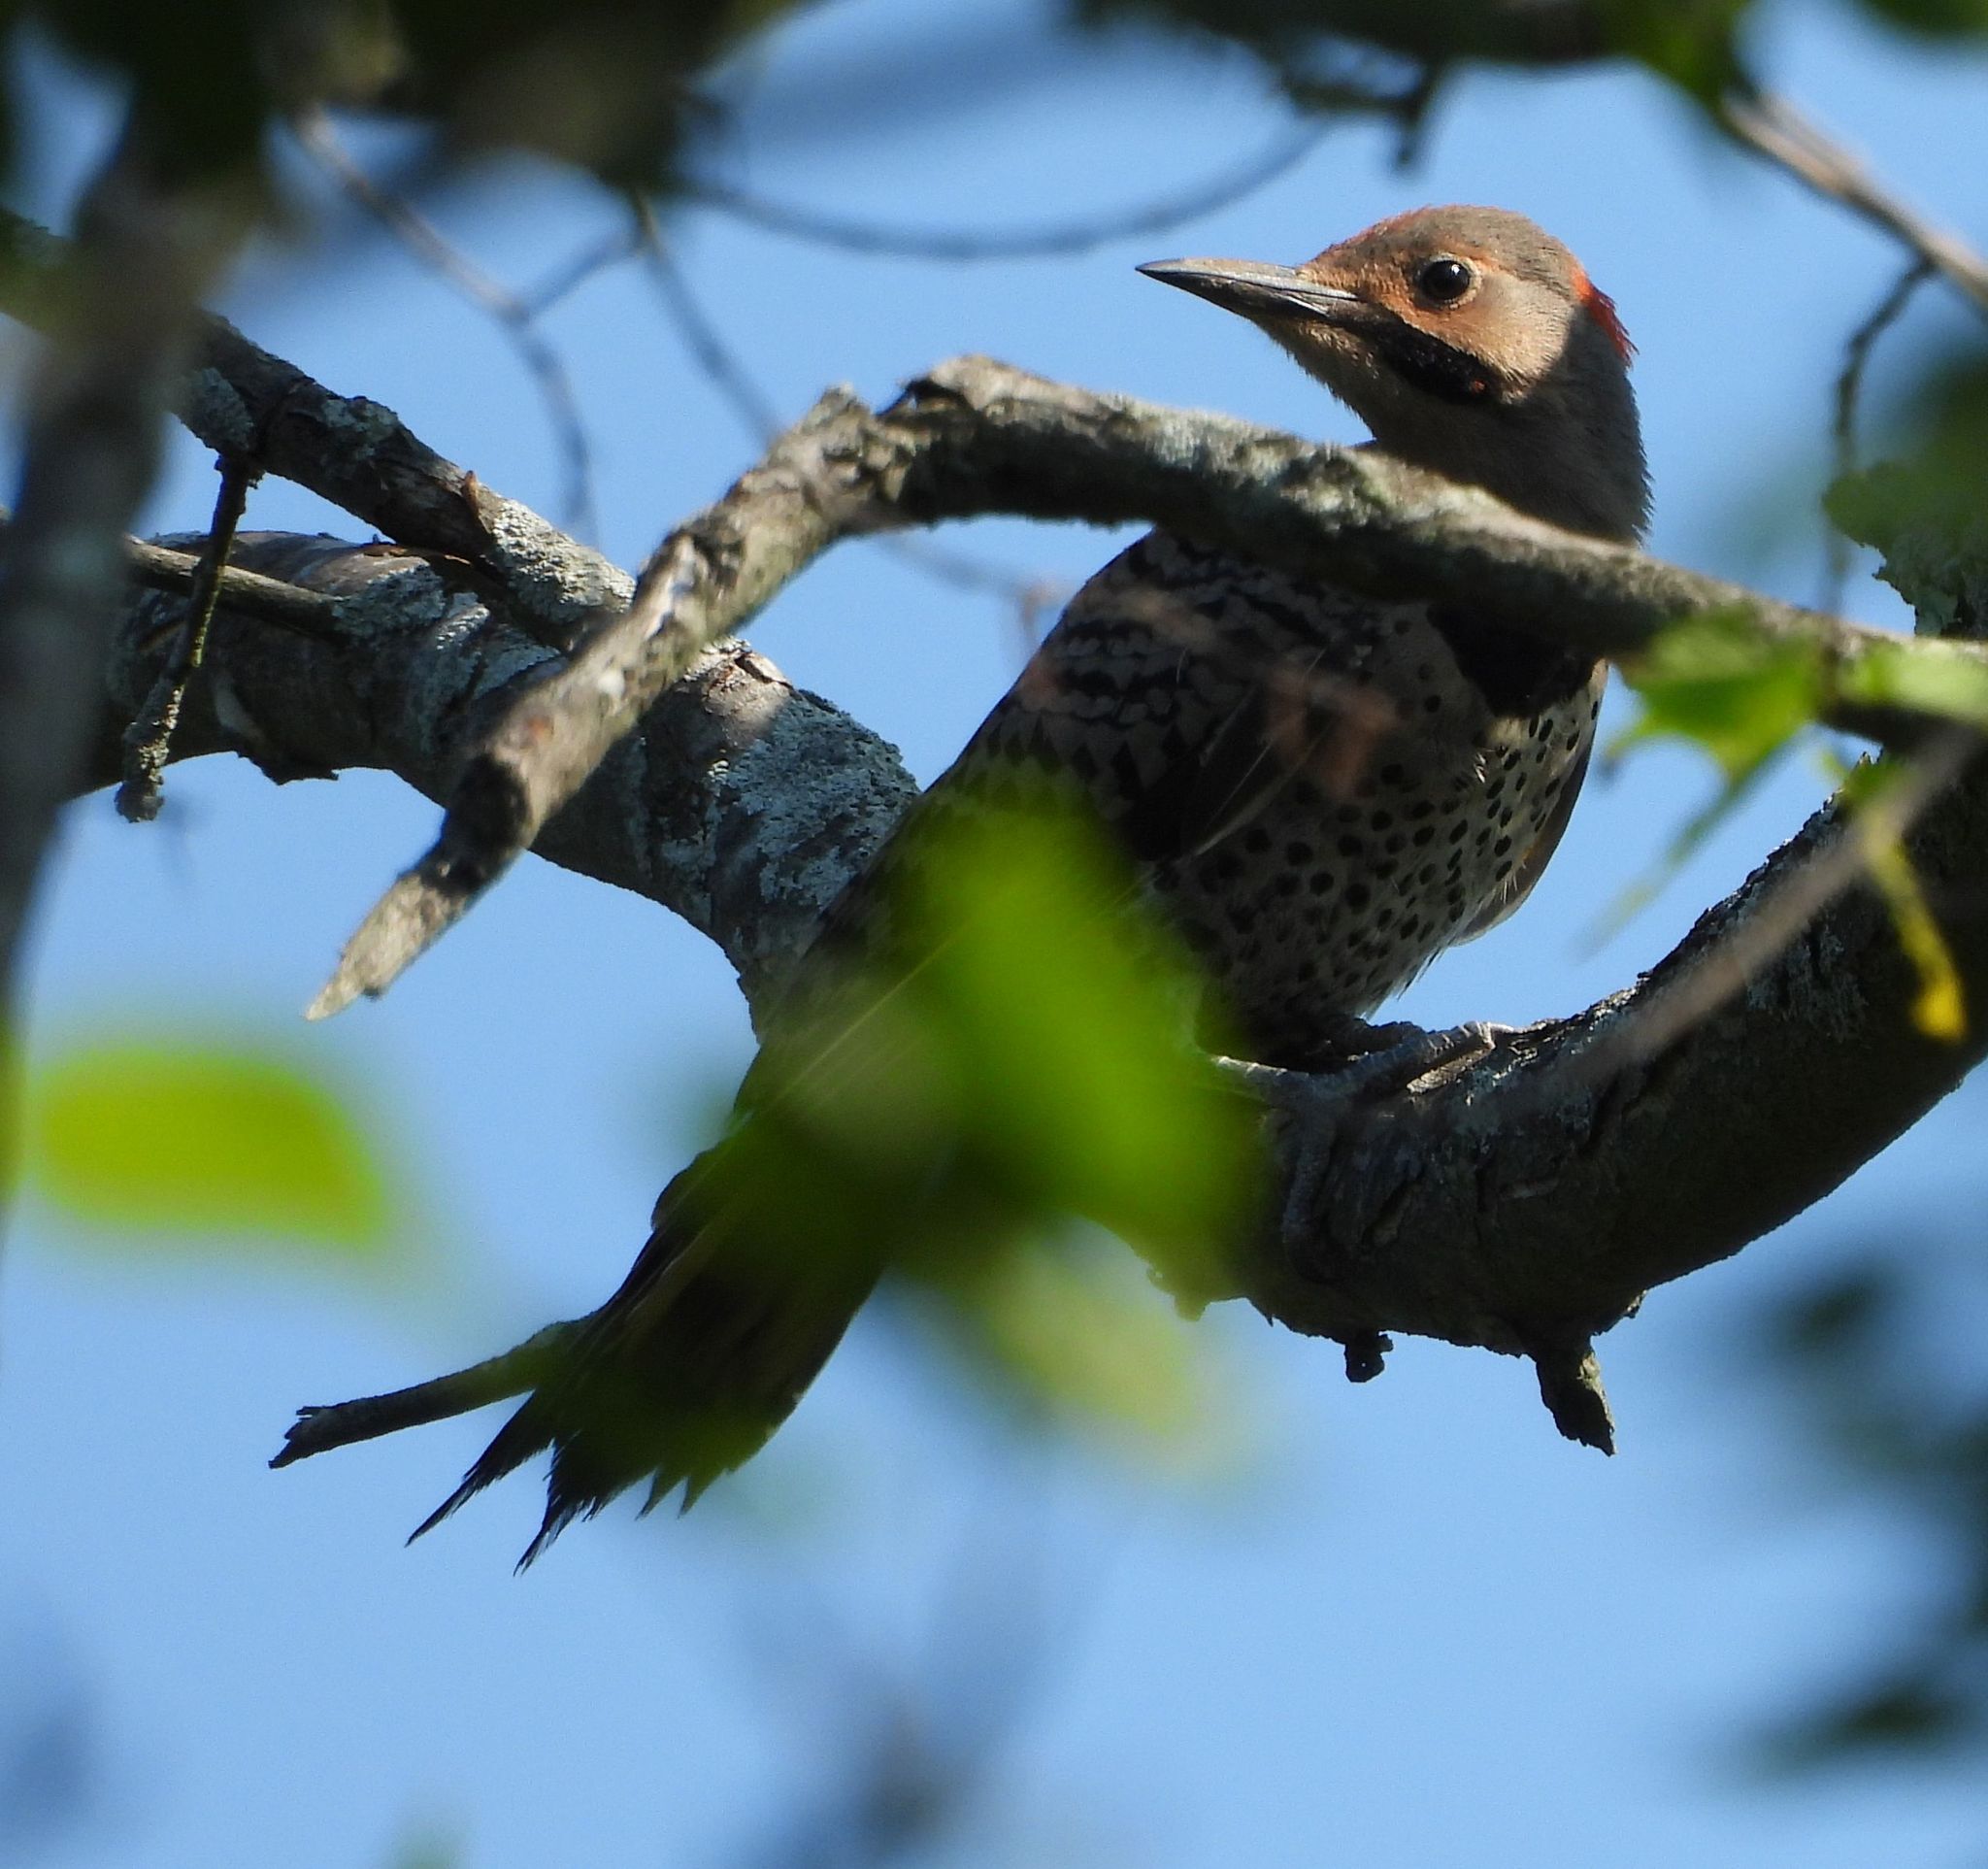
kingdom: Animalia
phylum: Chordata
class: Aves
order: Piciformes
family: Picidae
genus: Colaptes
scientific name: Colaptes auratus
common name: Northern flicker
